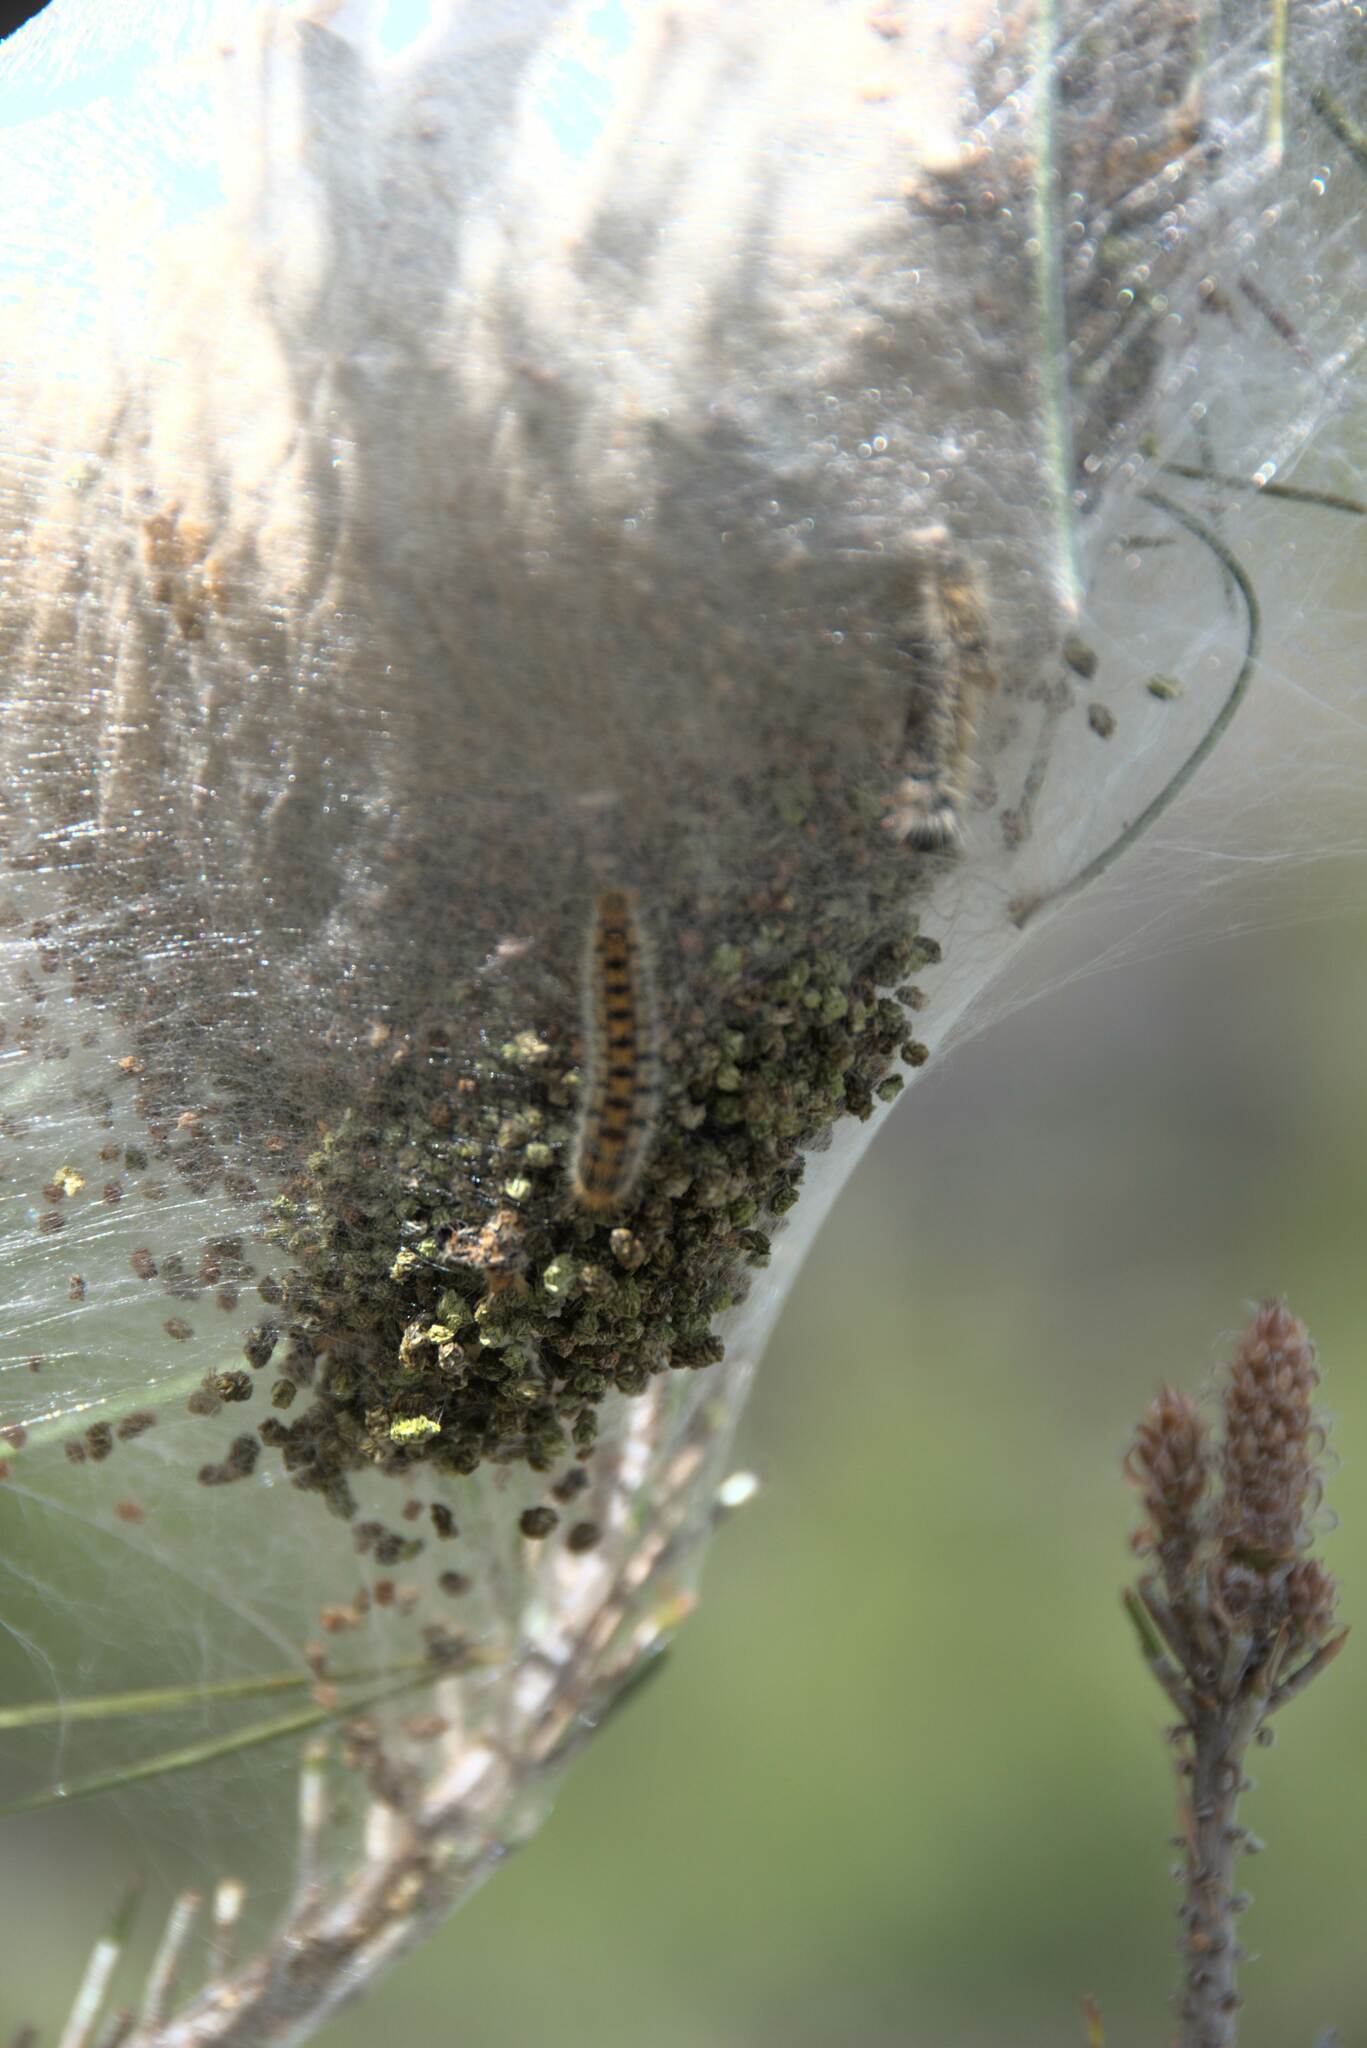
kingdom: Animalia
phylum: Arthropoda
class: Insecta
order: Lepidoptera
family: Notodontidae
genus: Thaumetopoea
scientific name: Thaumetopoea
